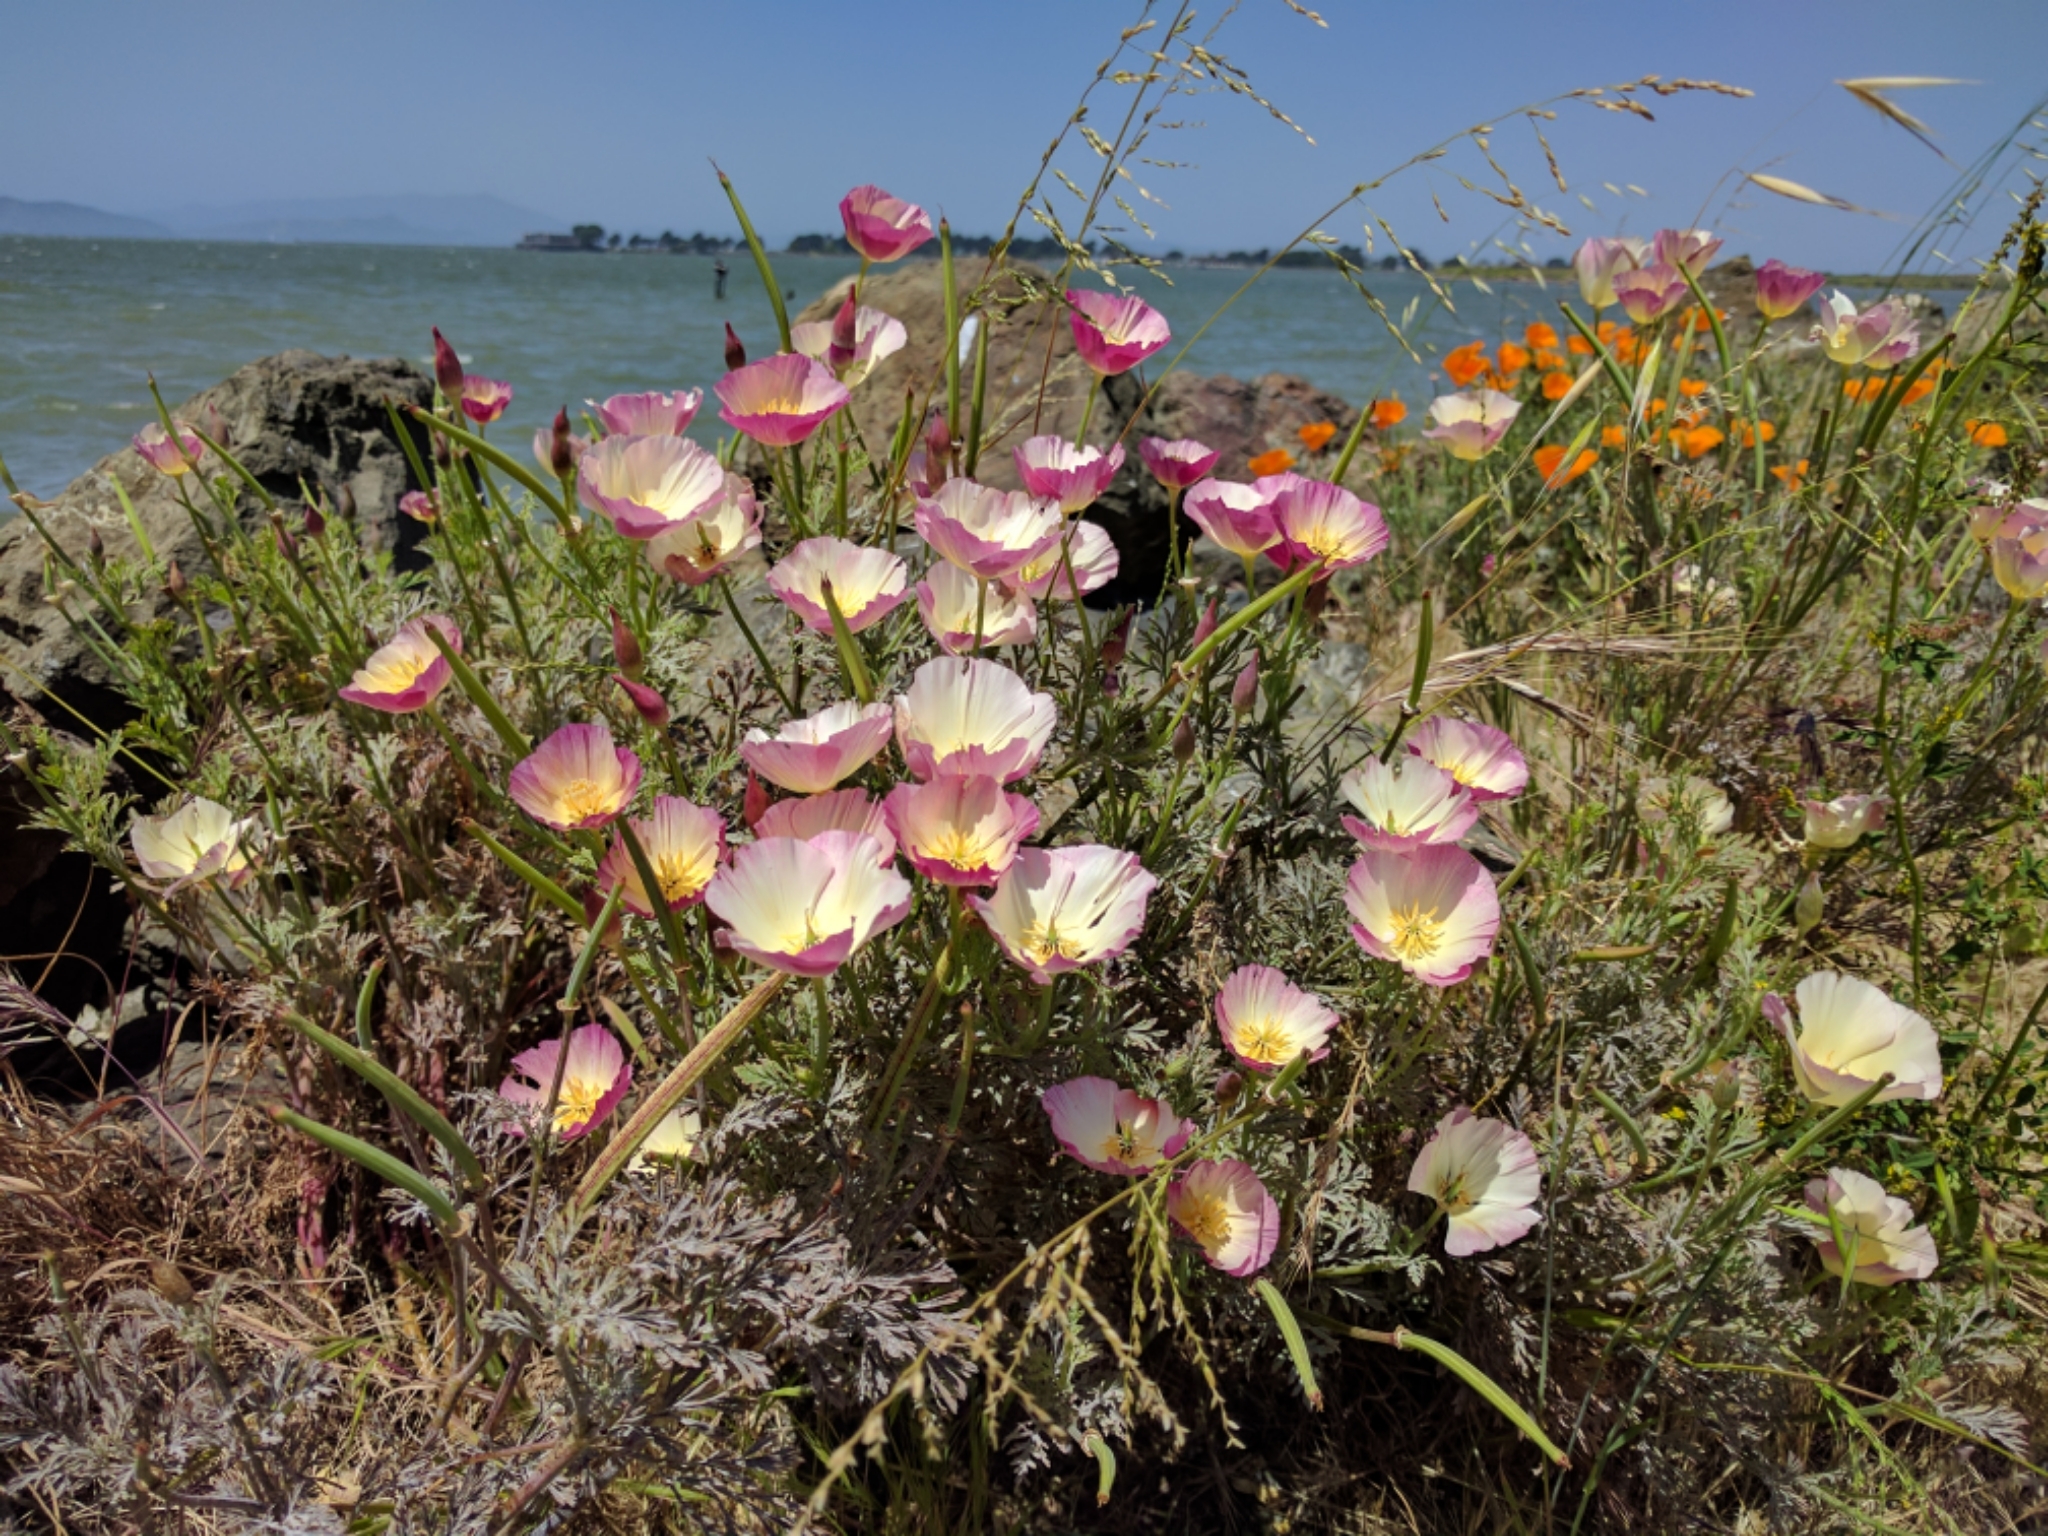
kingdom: Plantae
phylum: Tracheophyta
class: Magnoliopsida
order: Ranunculales
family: Papaveraceae
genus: Eschscholzia
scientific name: Eschscholzia californica
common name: California poppy
